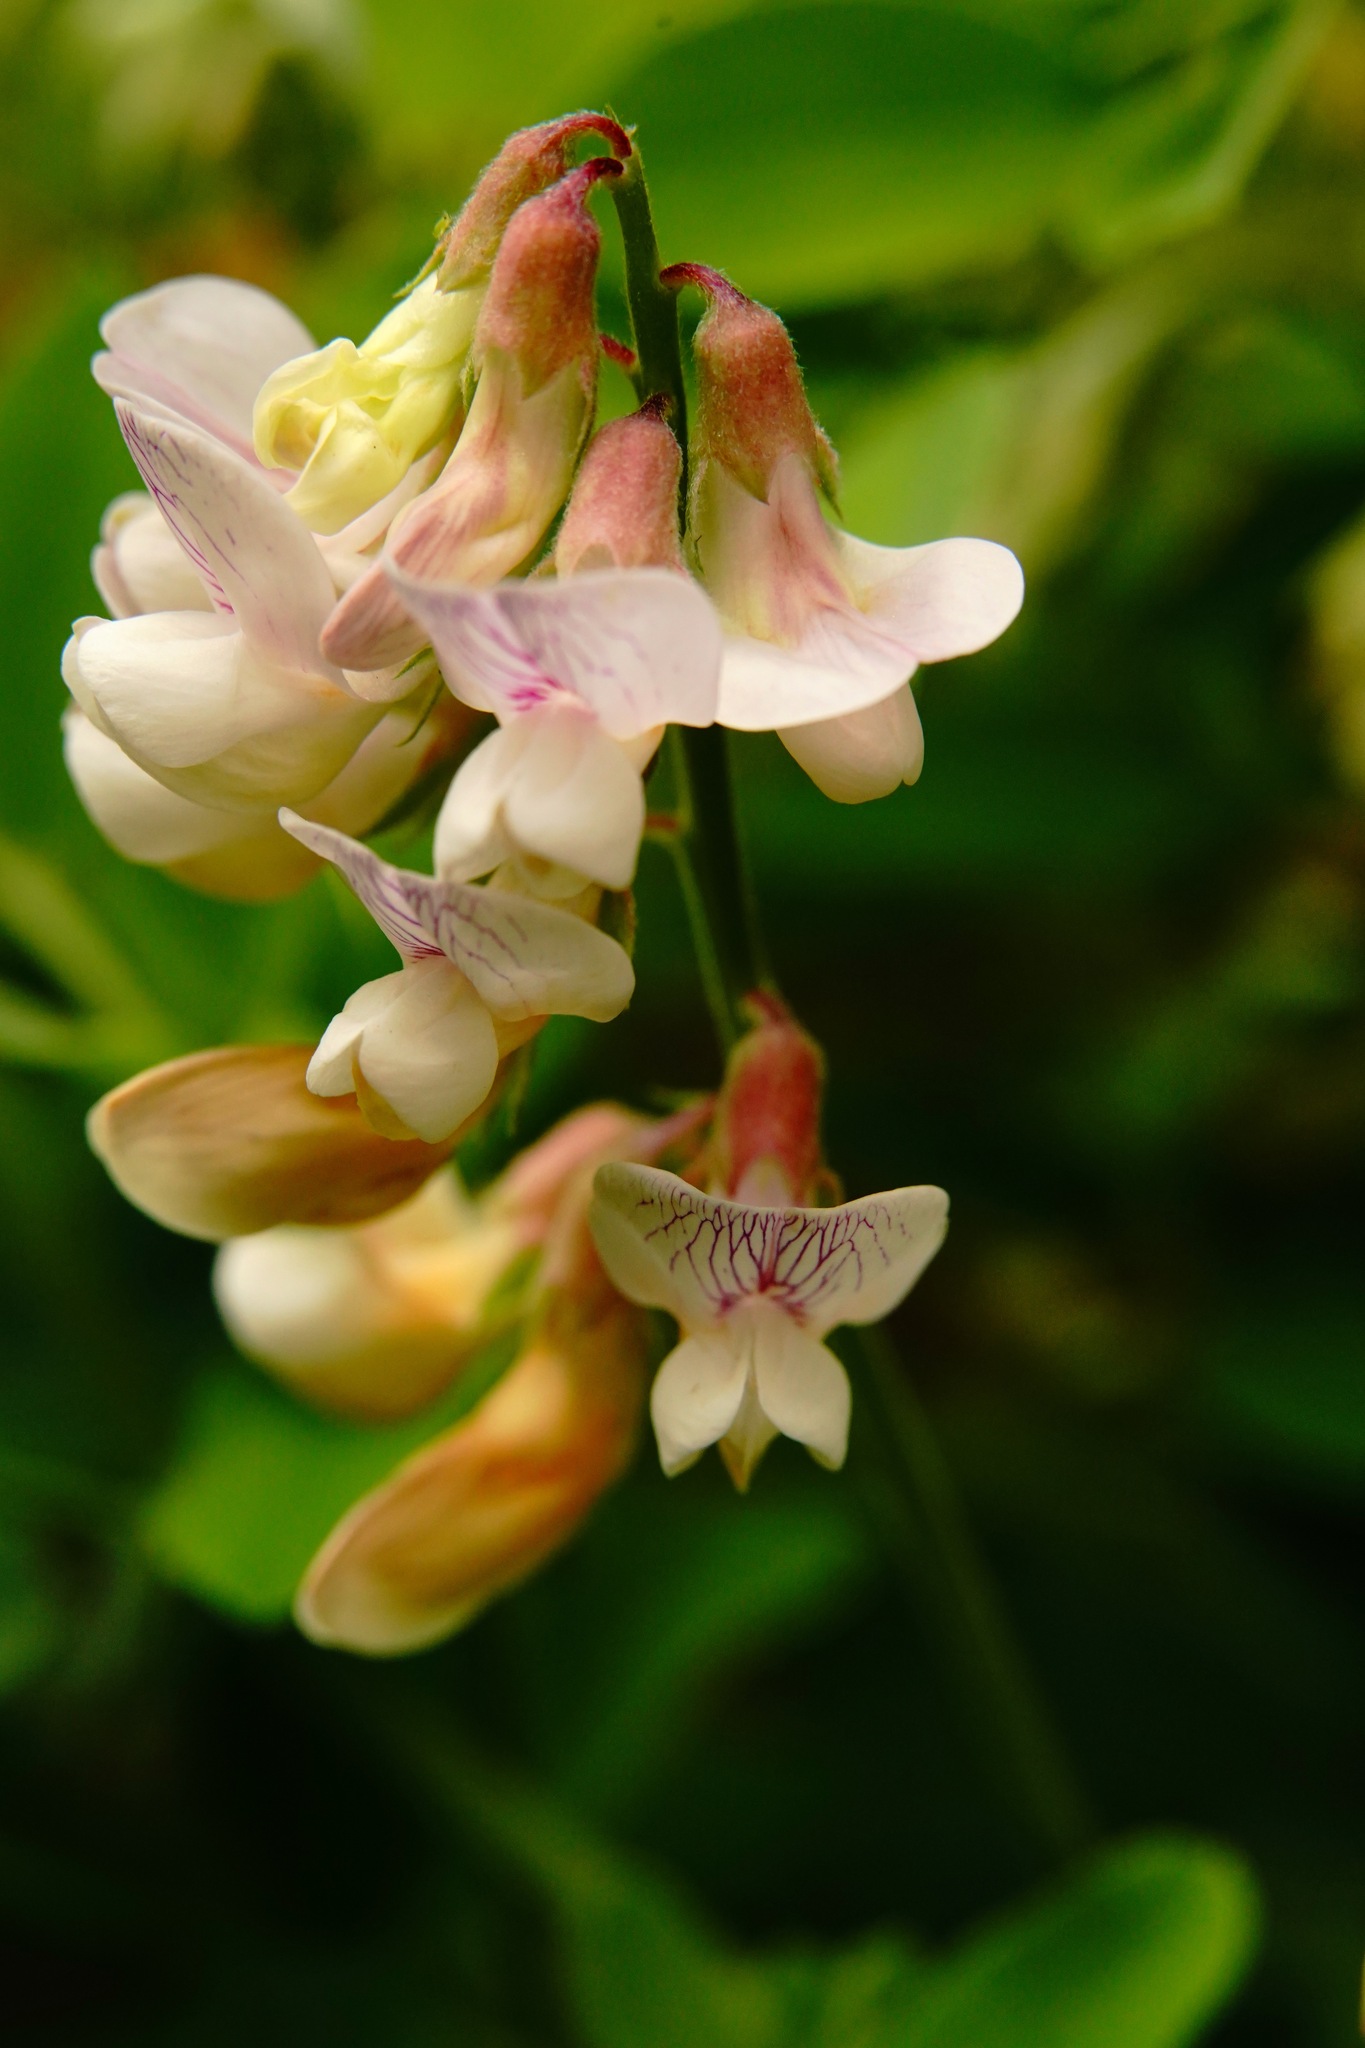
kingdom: Plantae
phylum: Tracheophyta
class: Magnoliopsida
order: Fabales
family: Fabaceae
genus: Lathyrus
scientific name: Lathyrus vestitus
